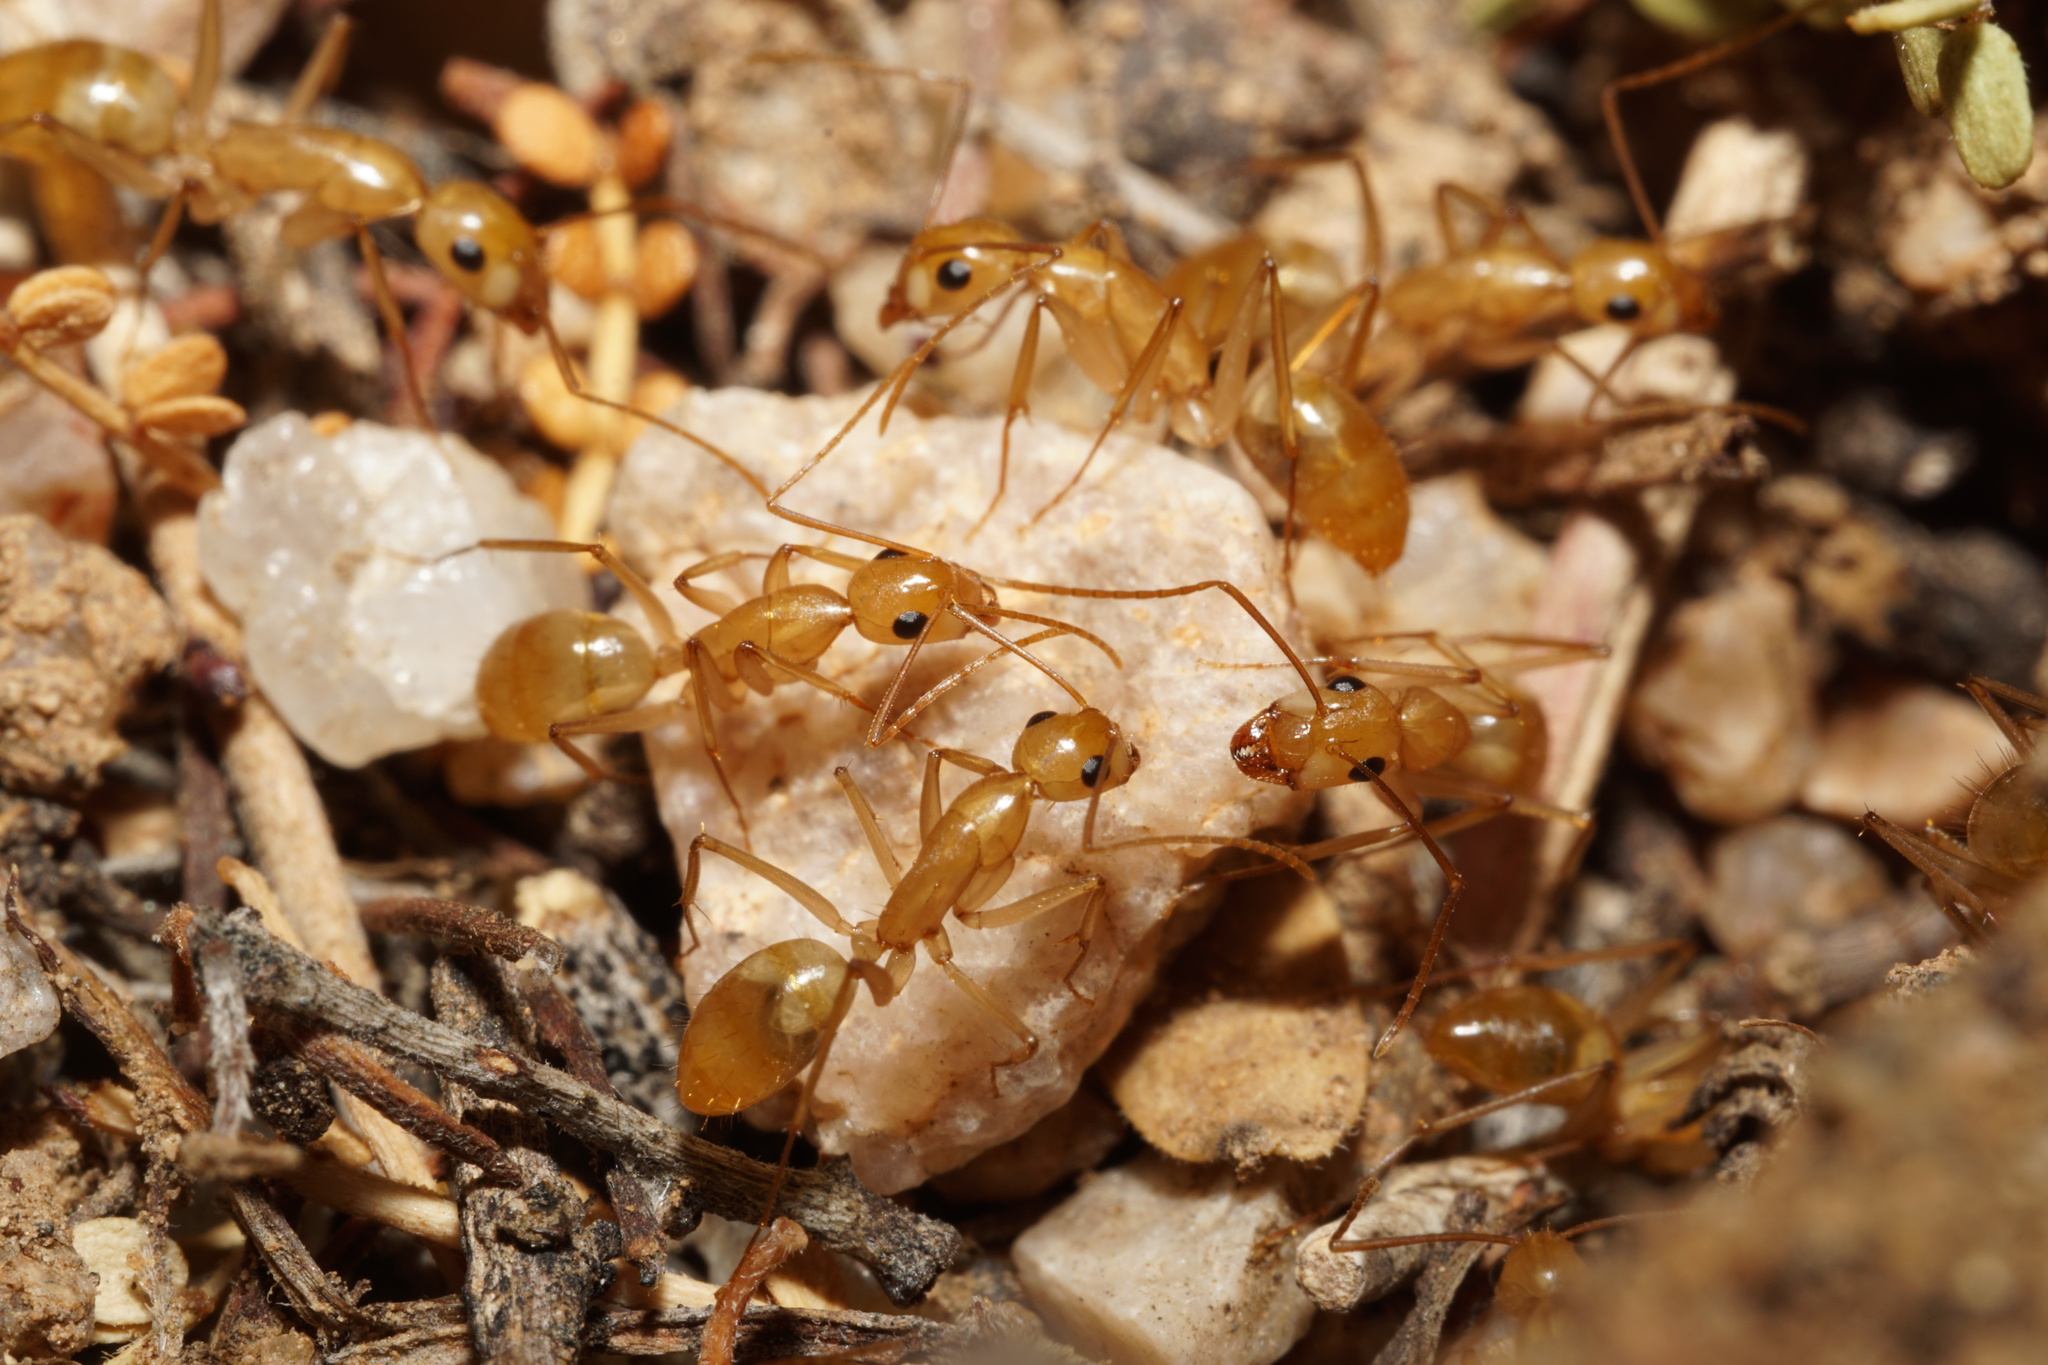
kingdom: Animalia
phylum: Arthropoda
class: Insecta
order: Hymenoptera
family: Formicidae
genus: Camponotus
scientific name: Camponotus fragilis
